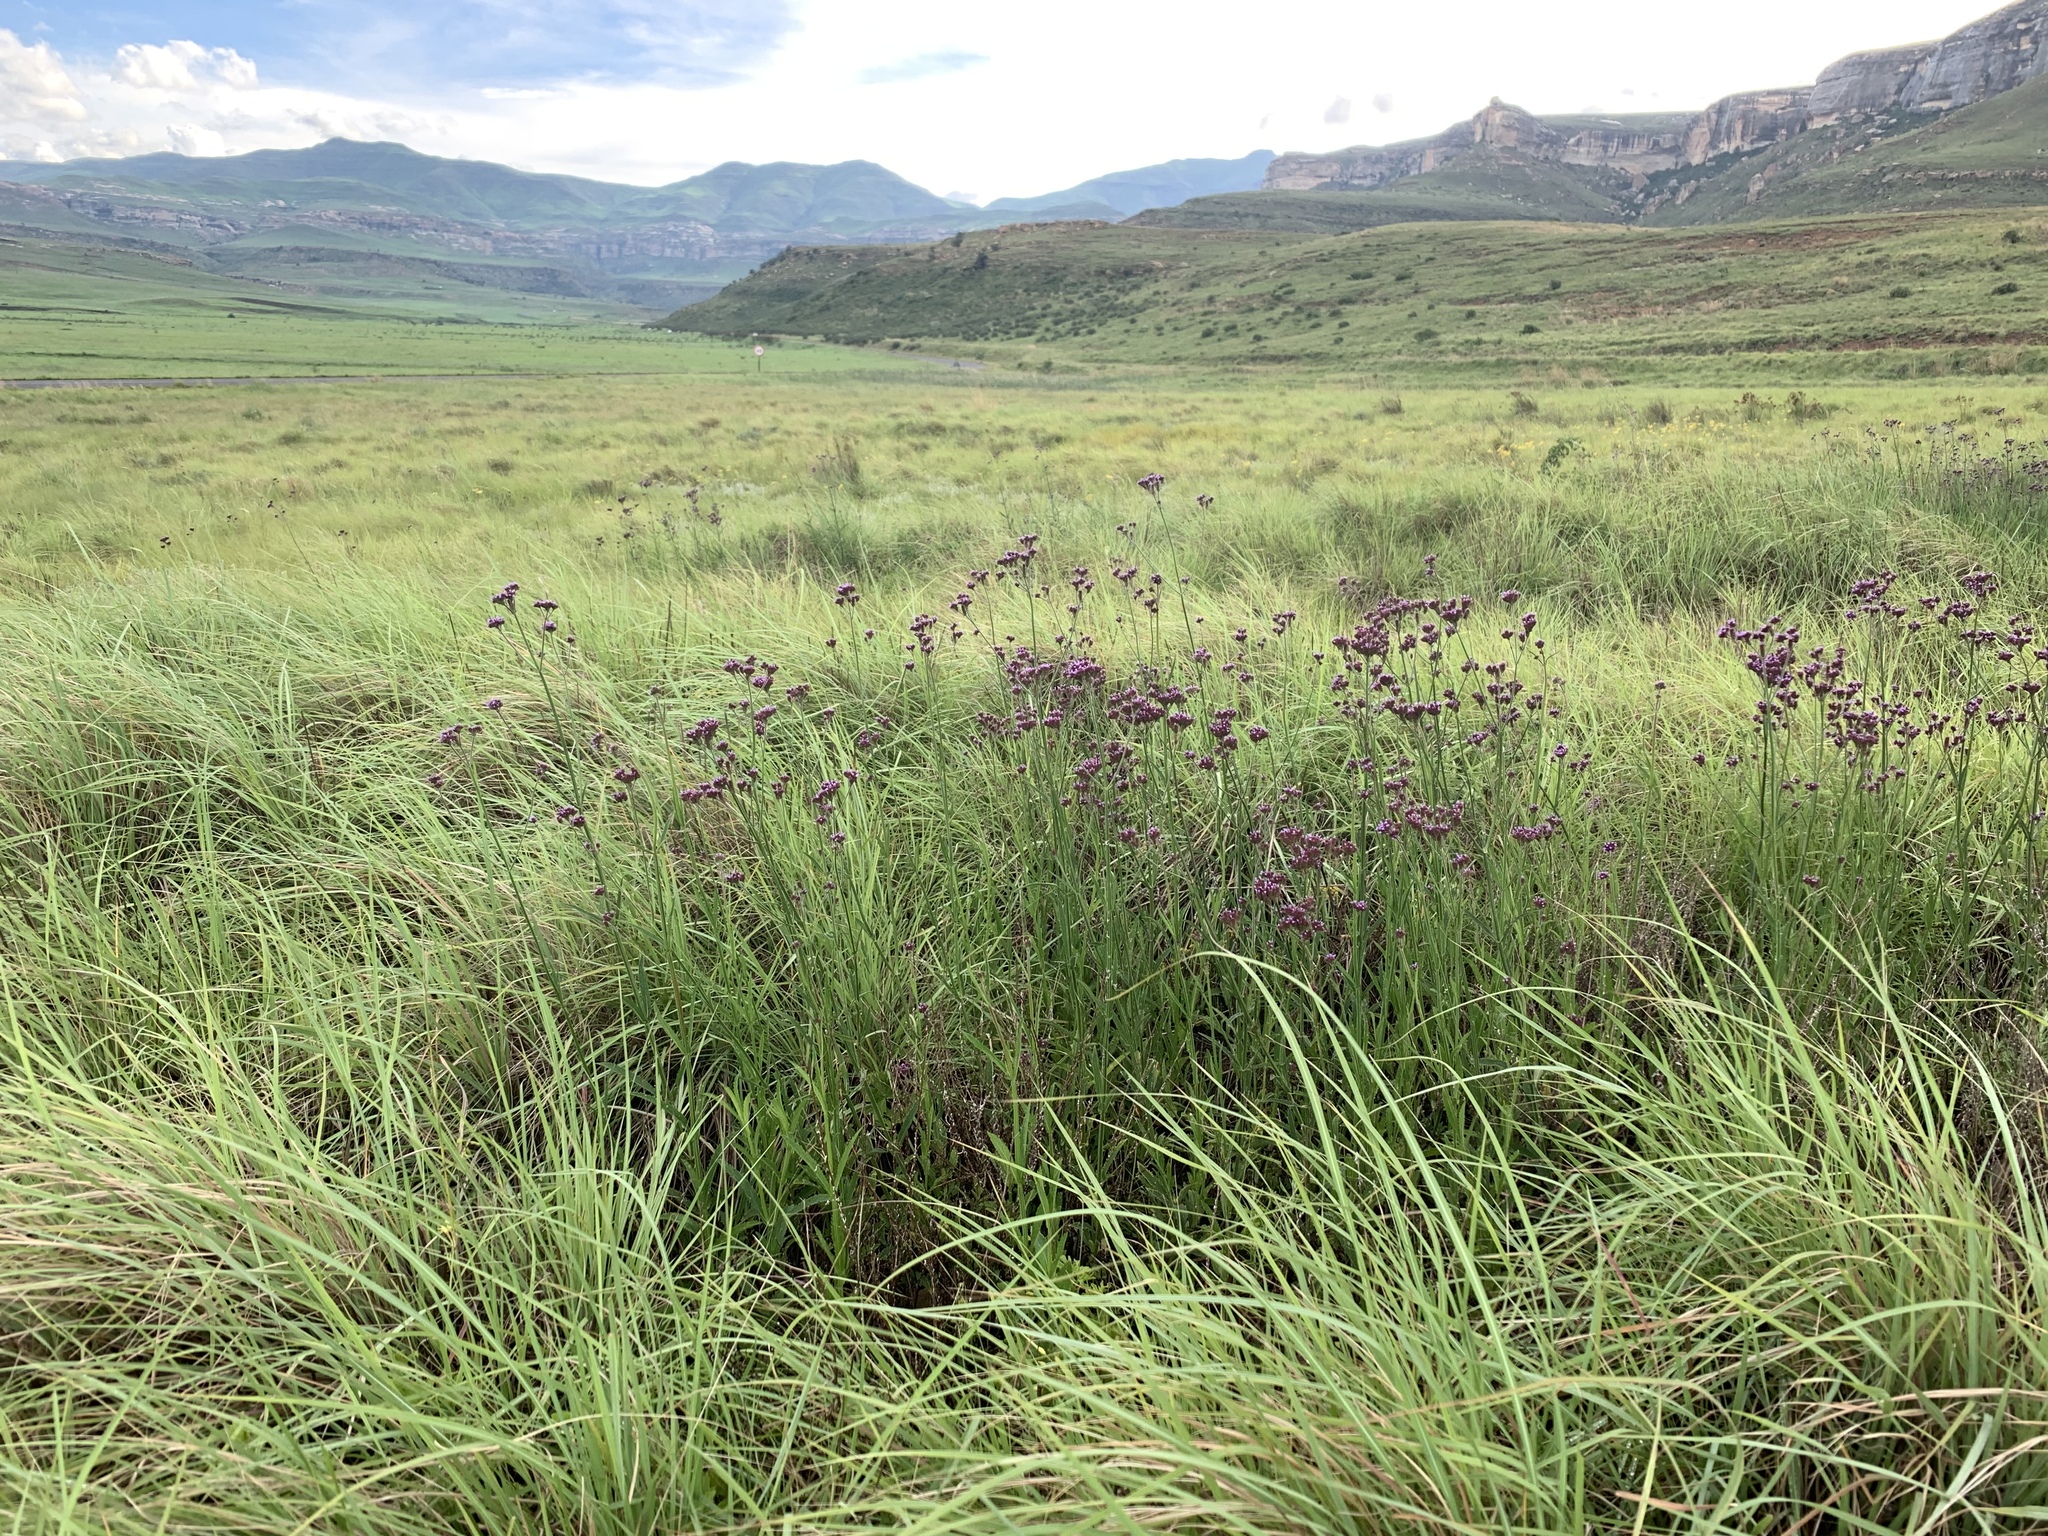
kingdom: Plantae
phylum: Tracheophyta
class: Magnoliopsida
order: Lamiales
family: Verbenaceae
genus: Verbena
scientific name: Verbena bonariensis
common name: Purpletop vervain
